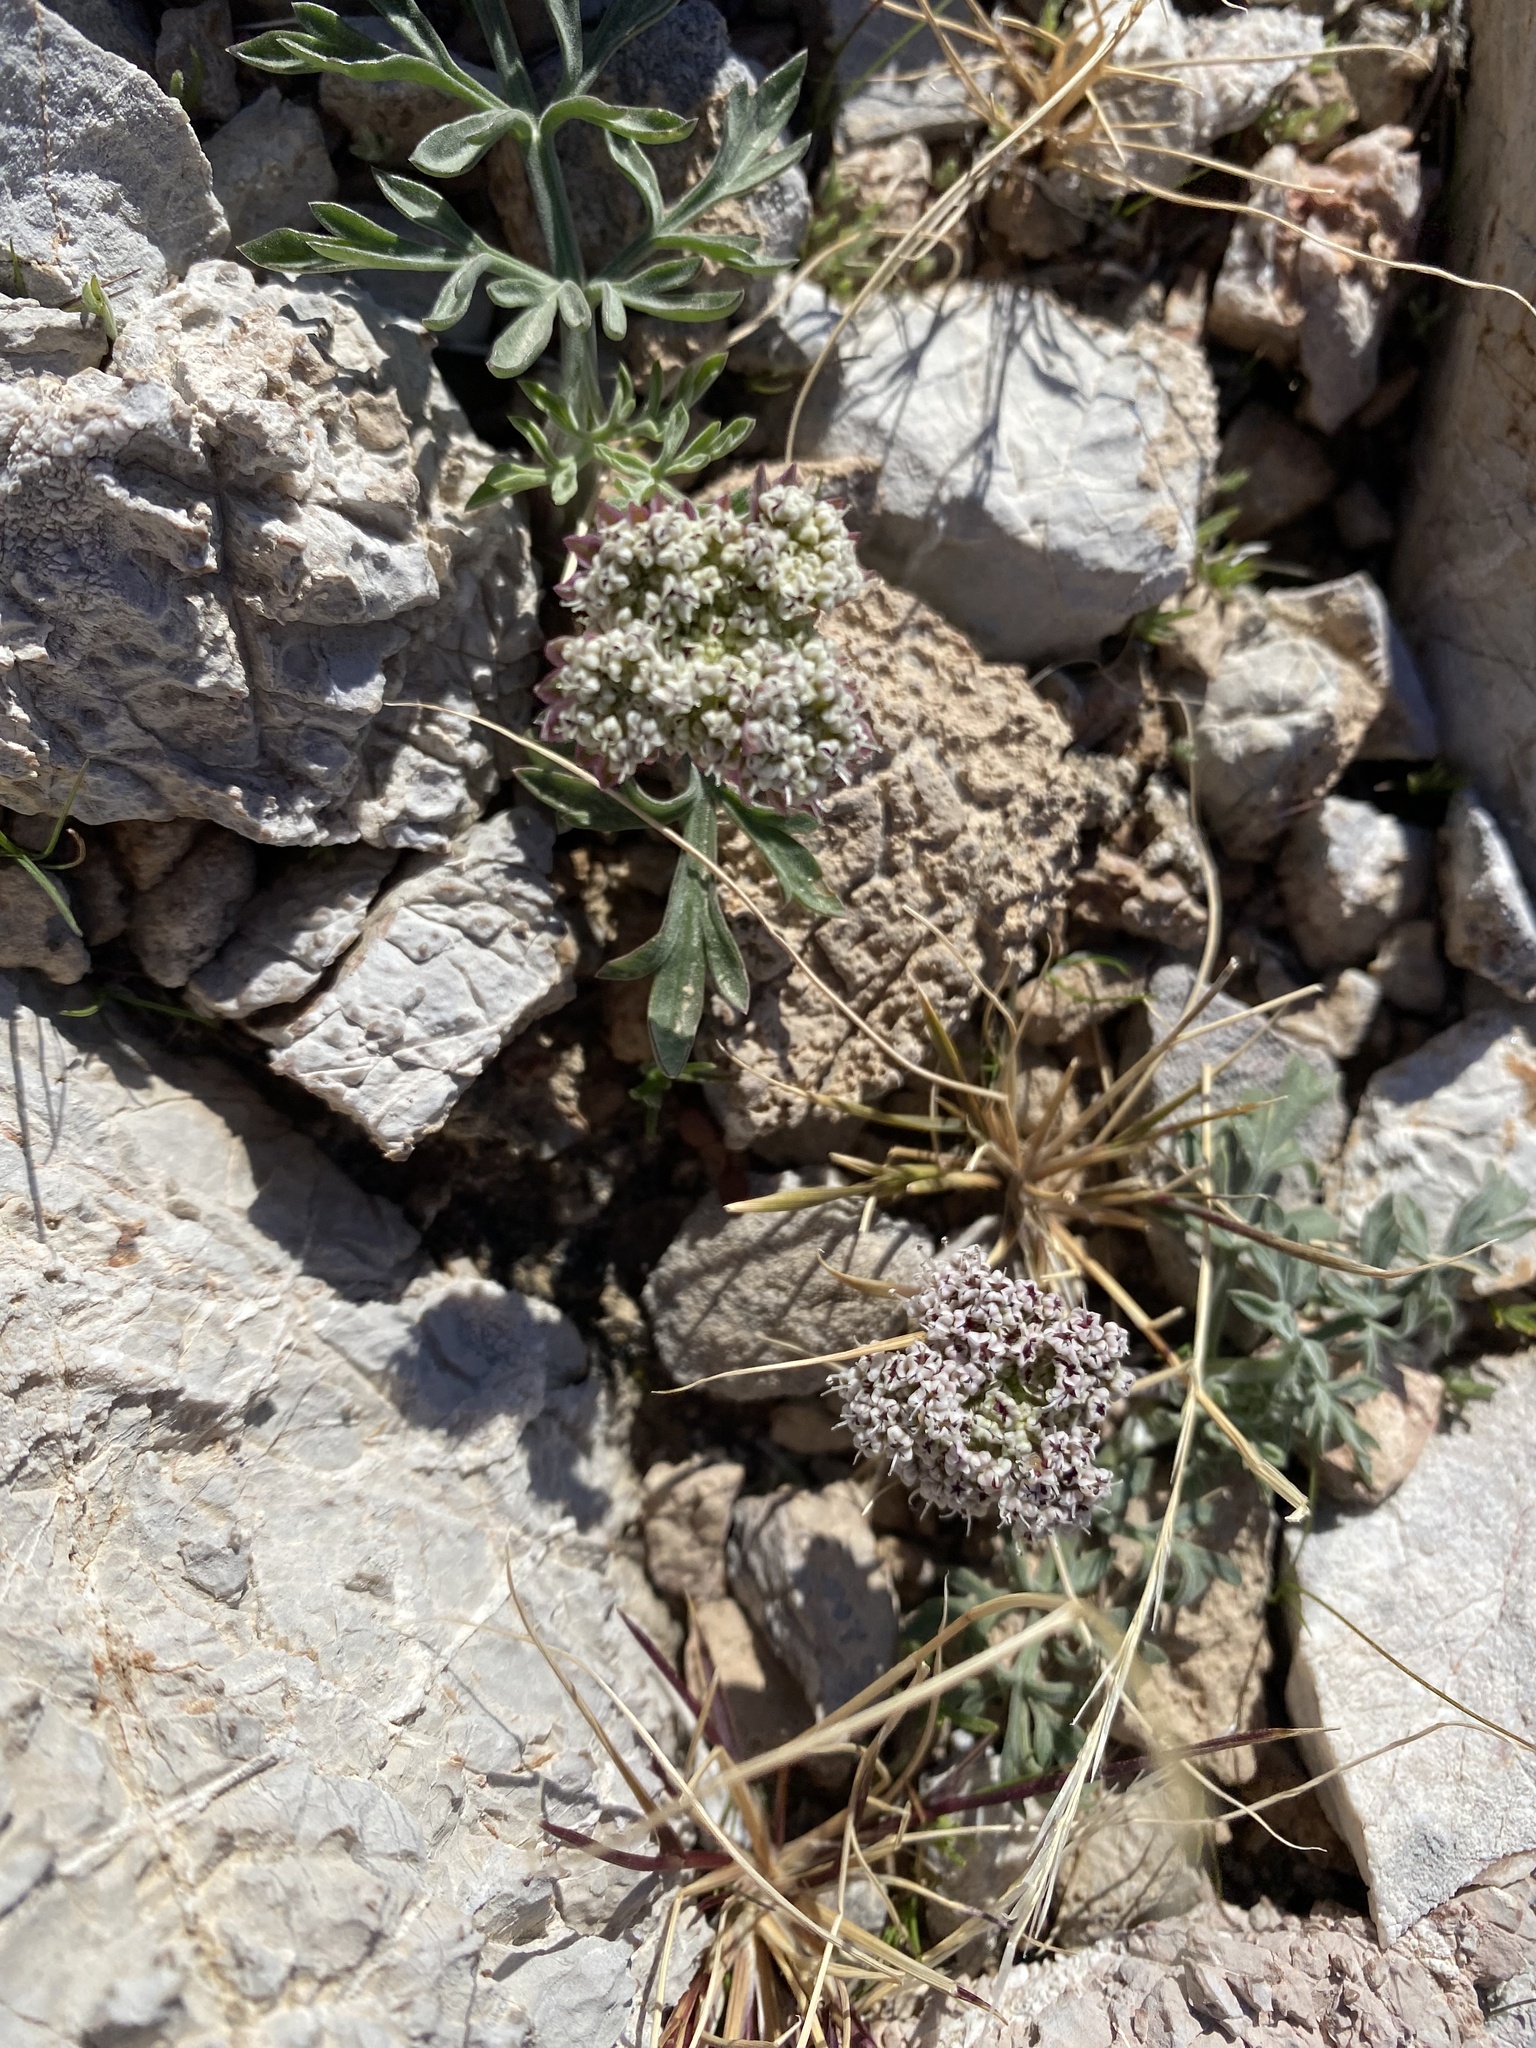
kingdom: Plantae
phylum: Tracheophyta
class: Magnoliopsida
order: Apiales
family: Apiaceae
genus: Lomatium
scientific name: Lomatium nevadense
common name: Nevada lomatium
